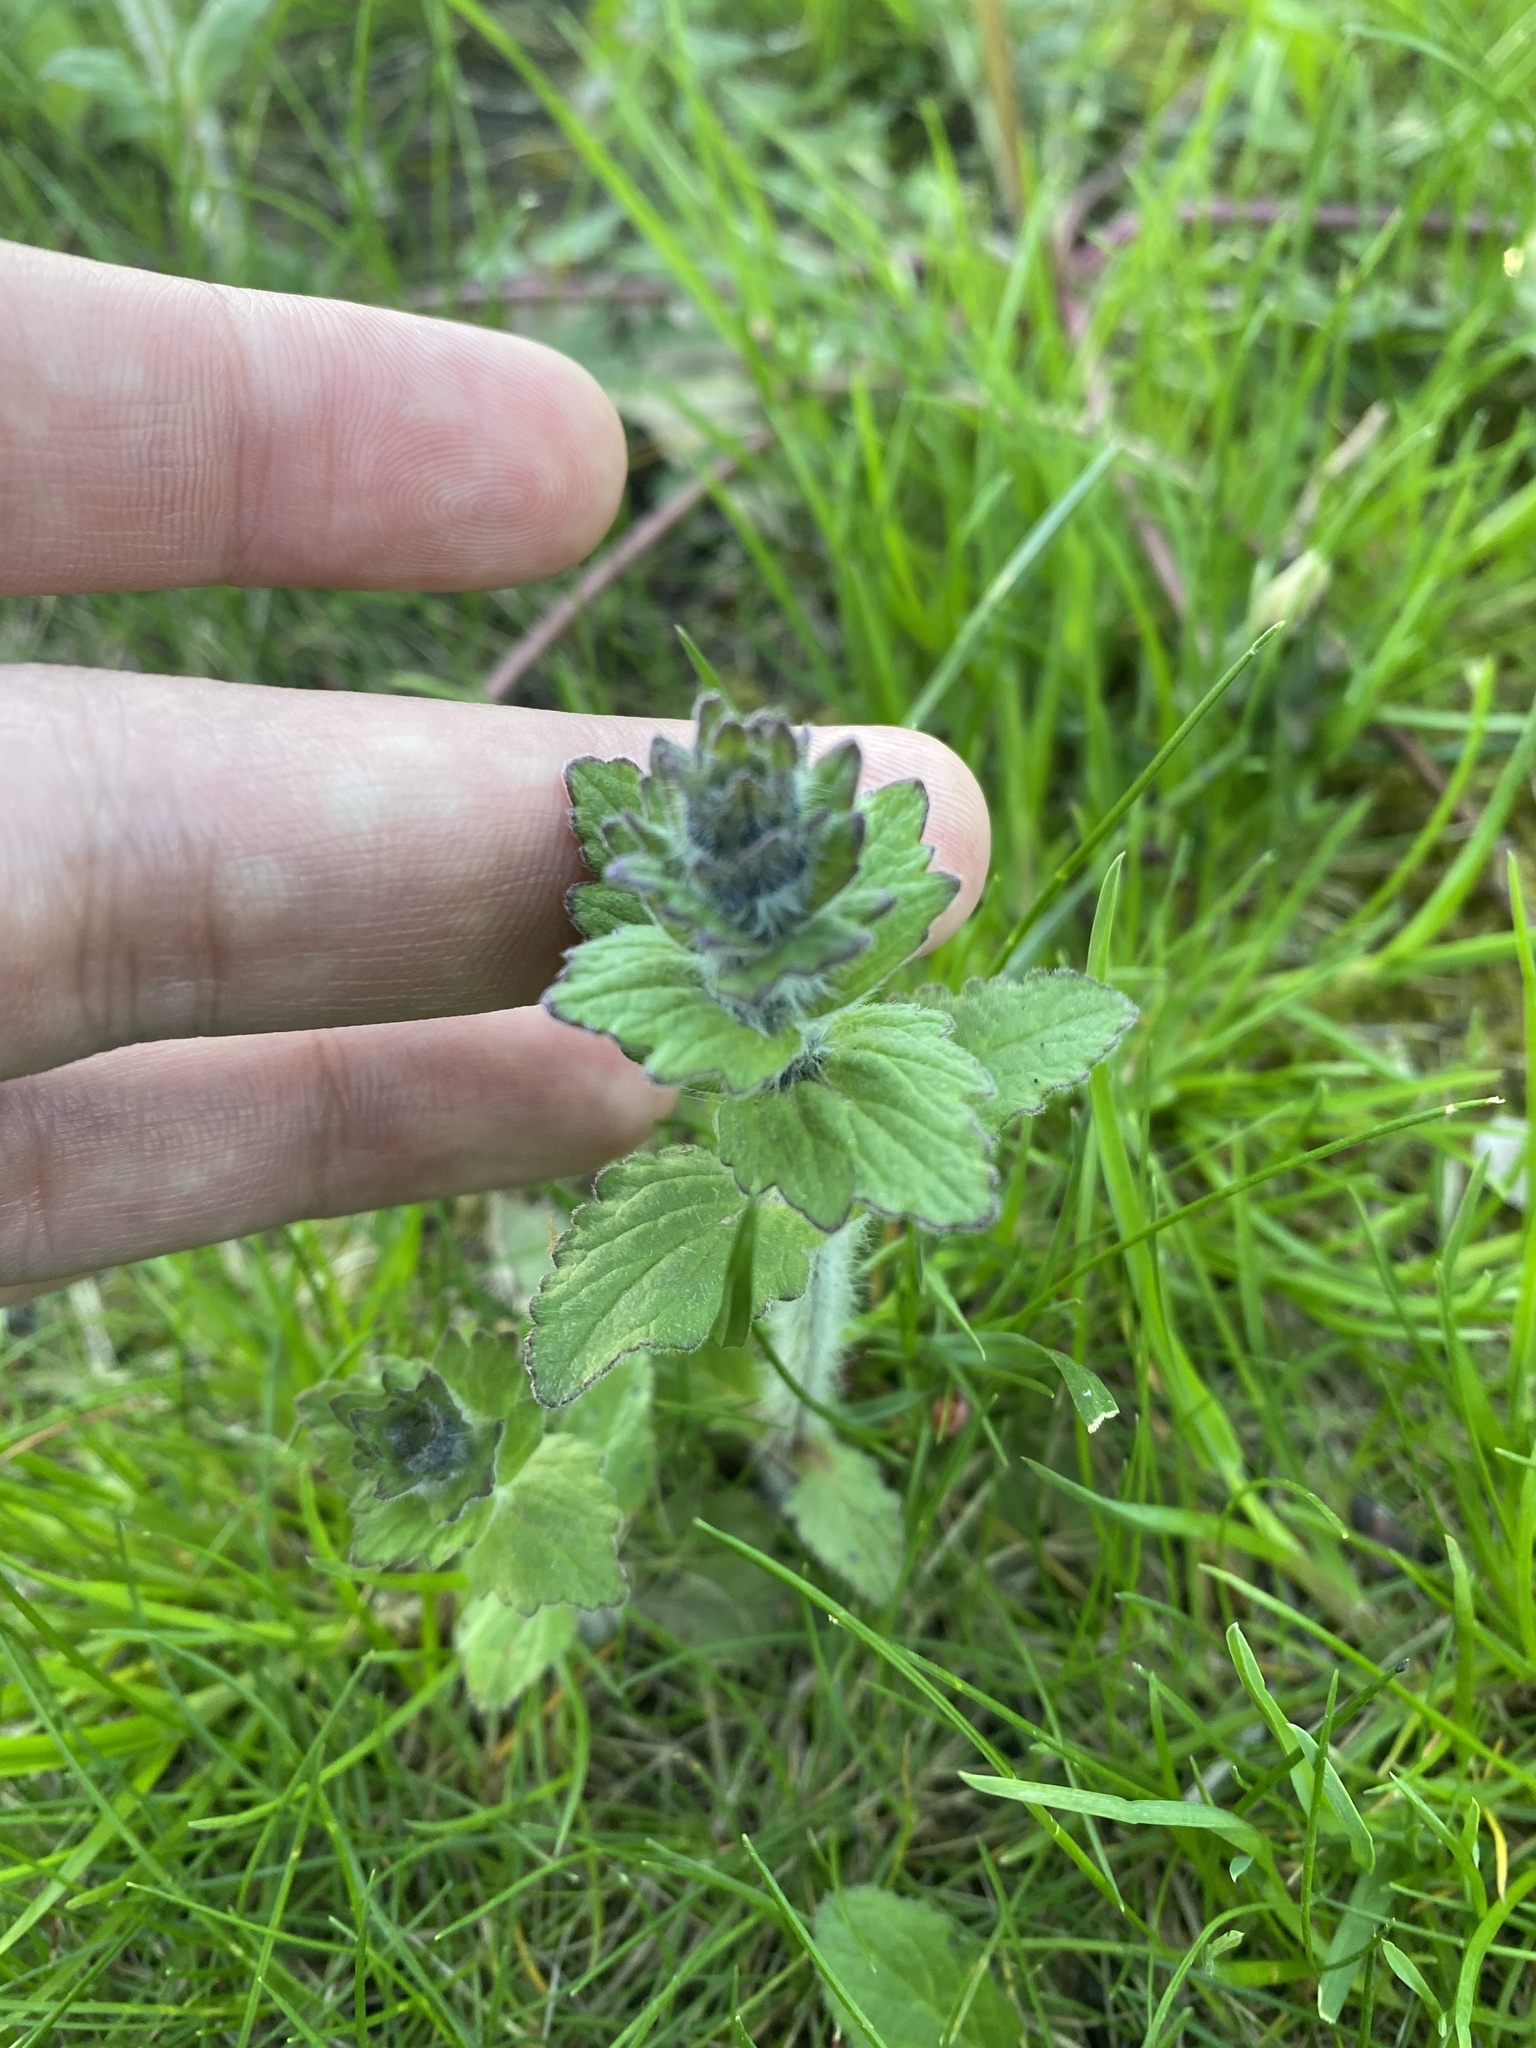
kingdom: Plantae
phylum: Tracheophyta
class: Magnoliopsida
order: Lamiales
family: Lamiaceae
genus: Ajuga
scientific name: Ajuga genevensis
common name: Blue bugle
